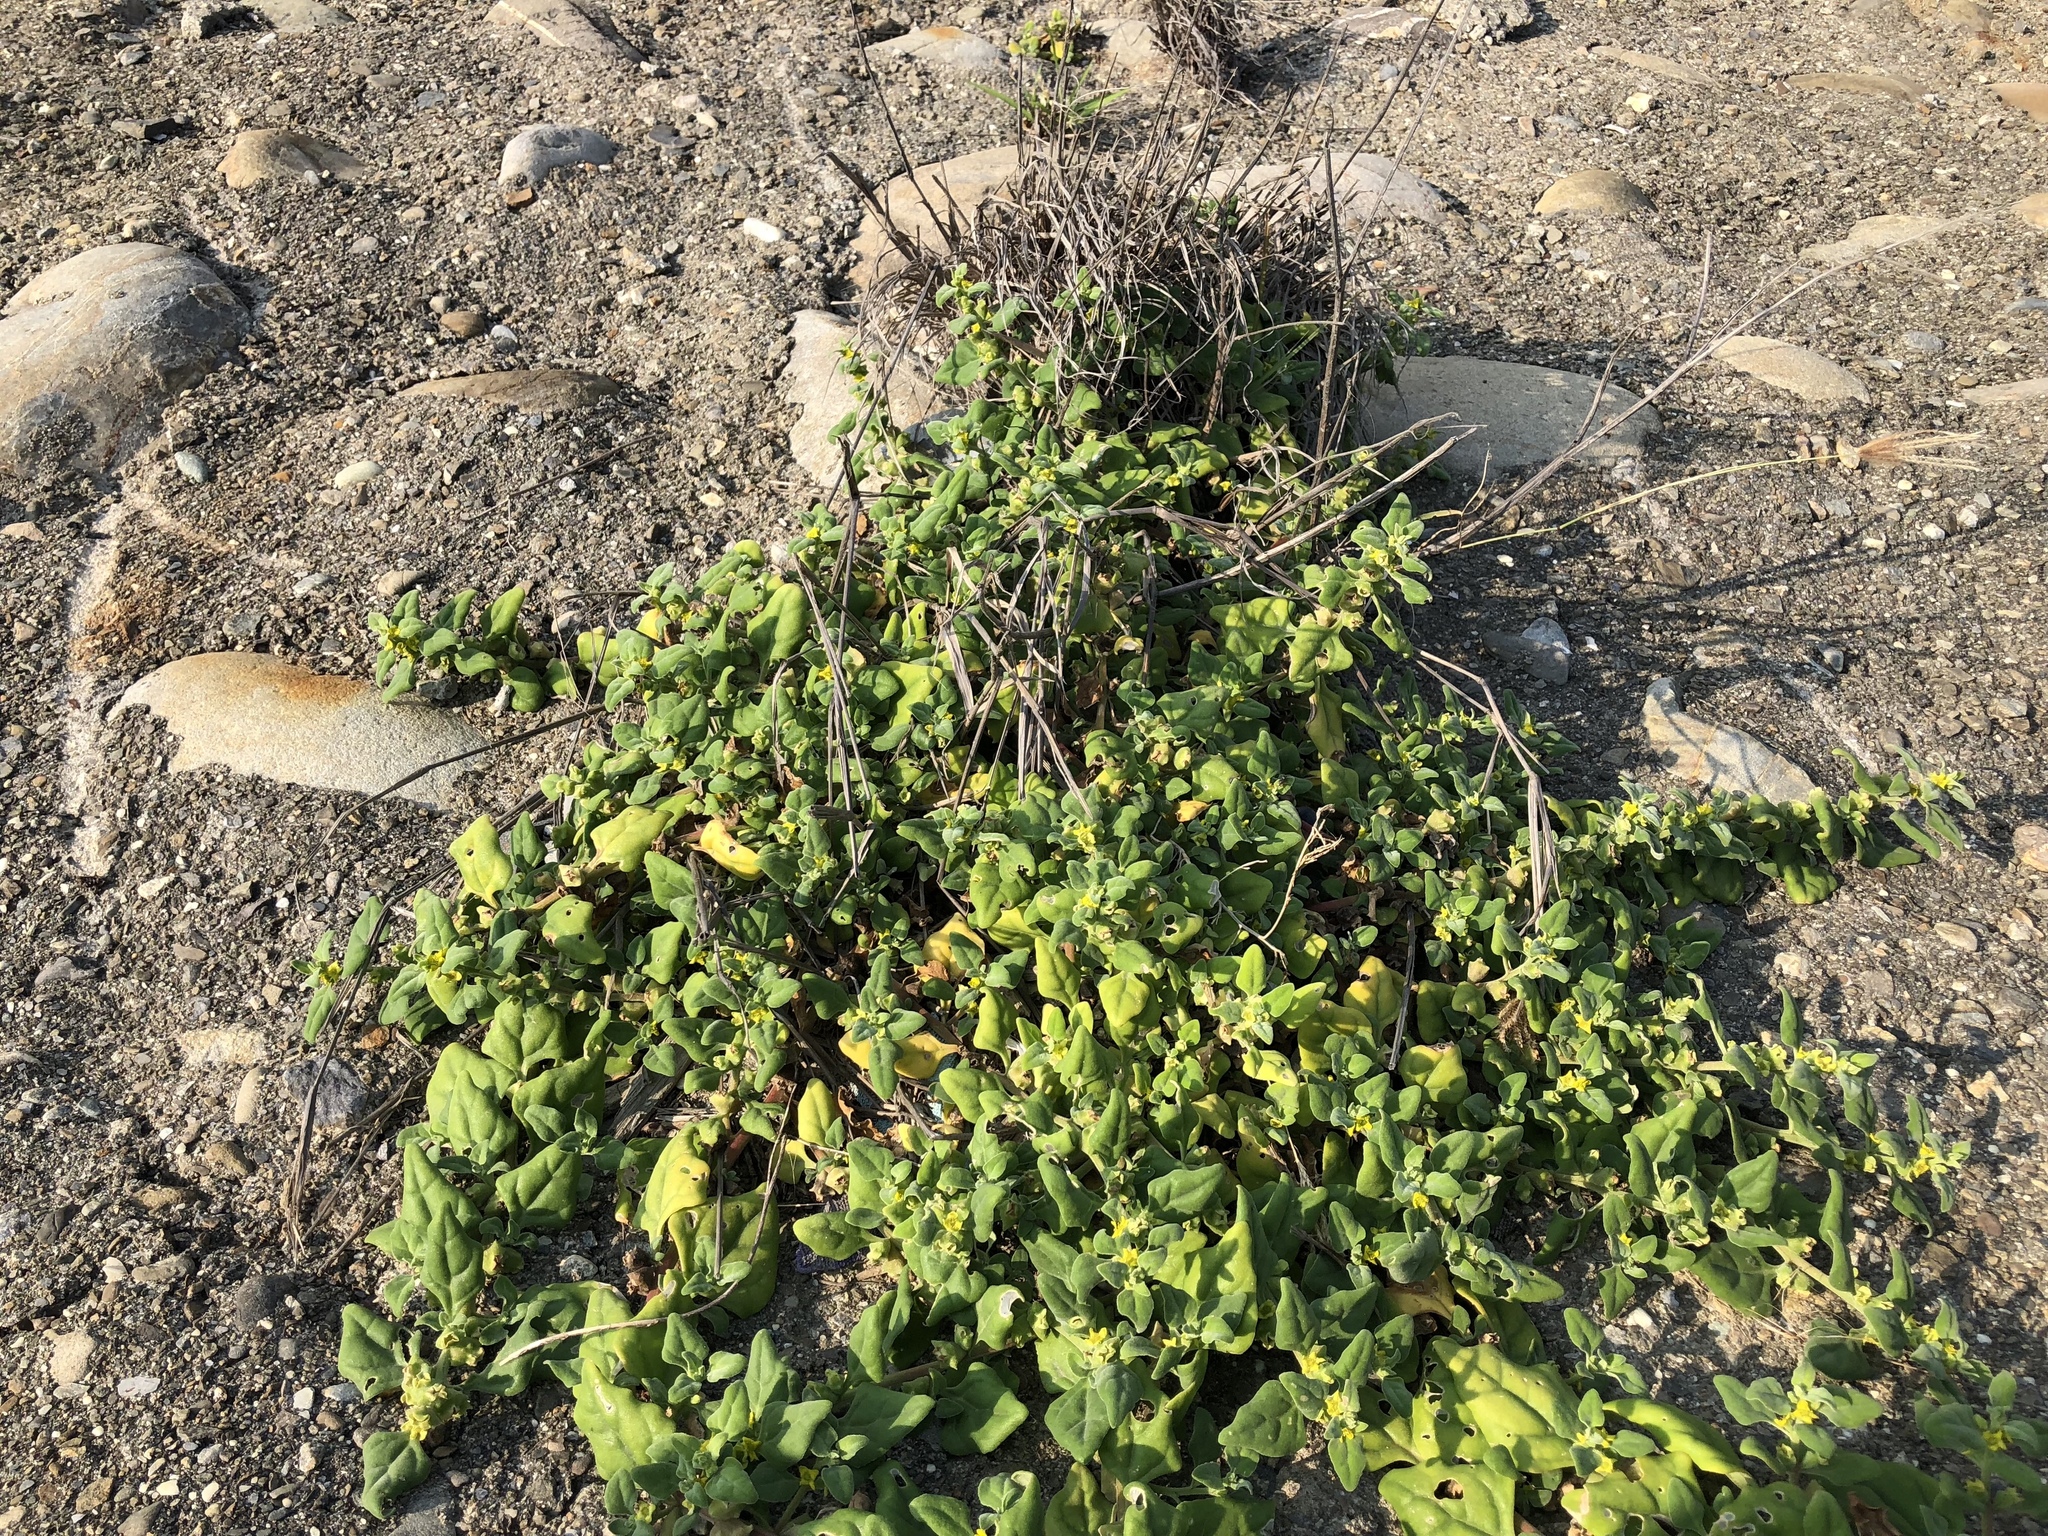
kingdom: Plantae
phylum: Tracheophyta
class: Magnoliopsida
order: Caryophyllales
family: Aizoaceae
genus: Tetragonia
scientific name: Tetragonia tetragonoides
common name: New zealand-spinach
